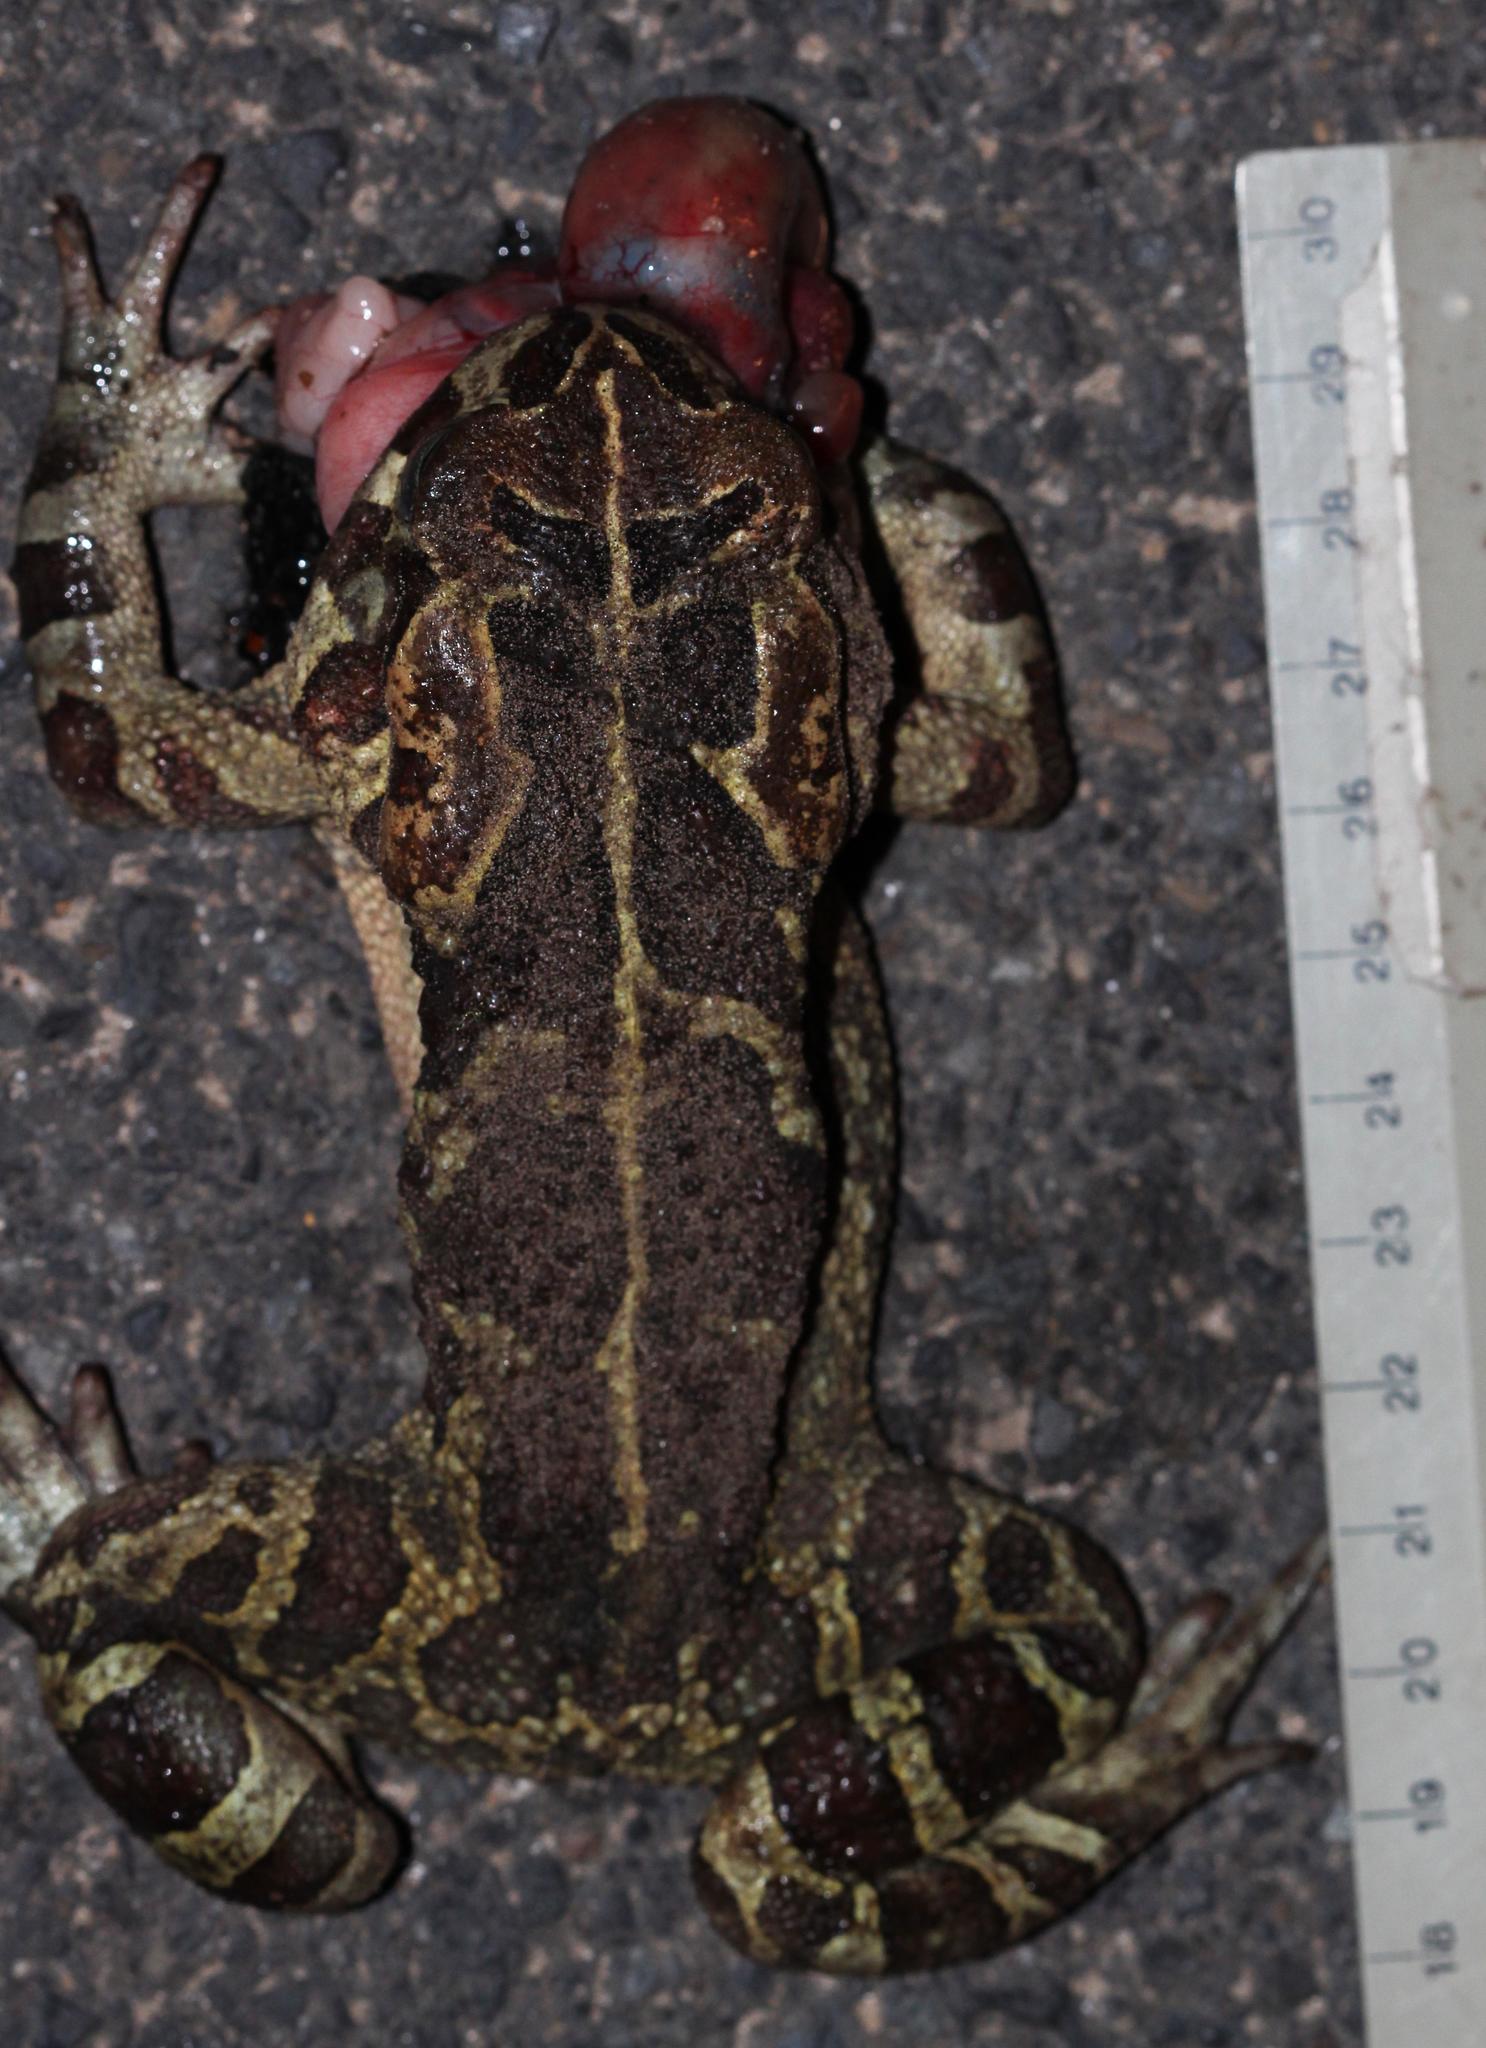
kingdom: Animalia
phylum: Chordata
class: Amphibia
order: Anura
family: Bufonidae
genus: Sclerophrys
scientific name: Sclerophrys pantherina
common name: Panther toad
